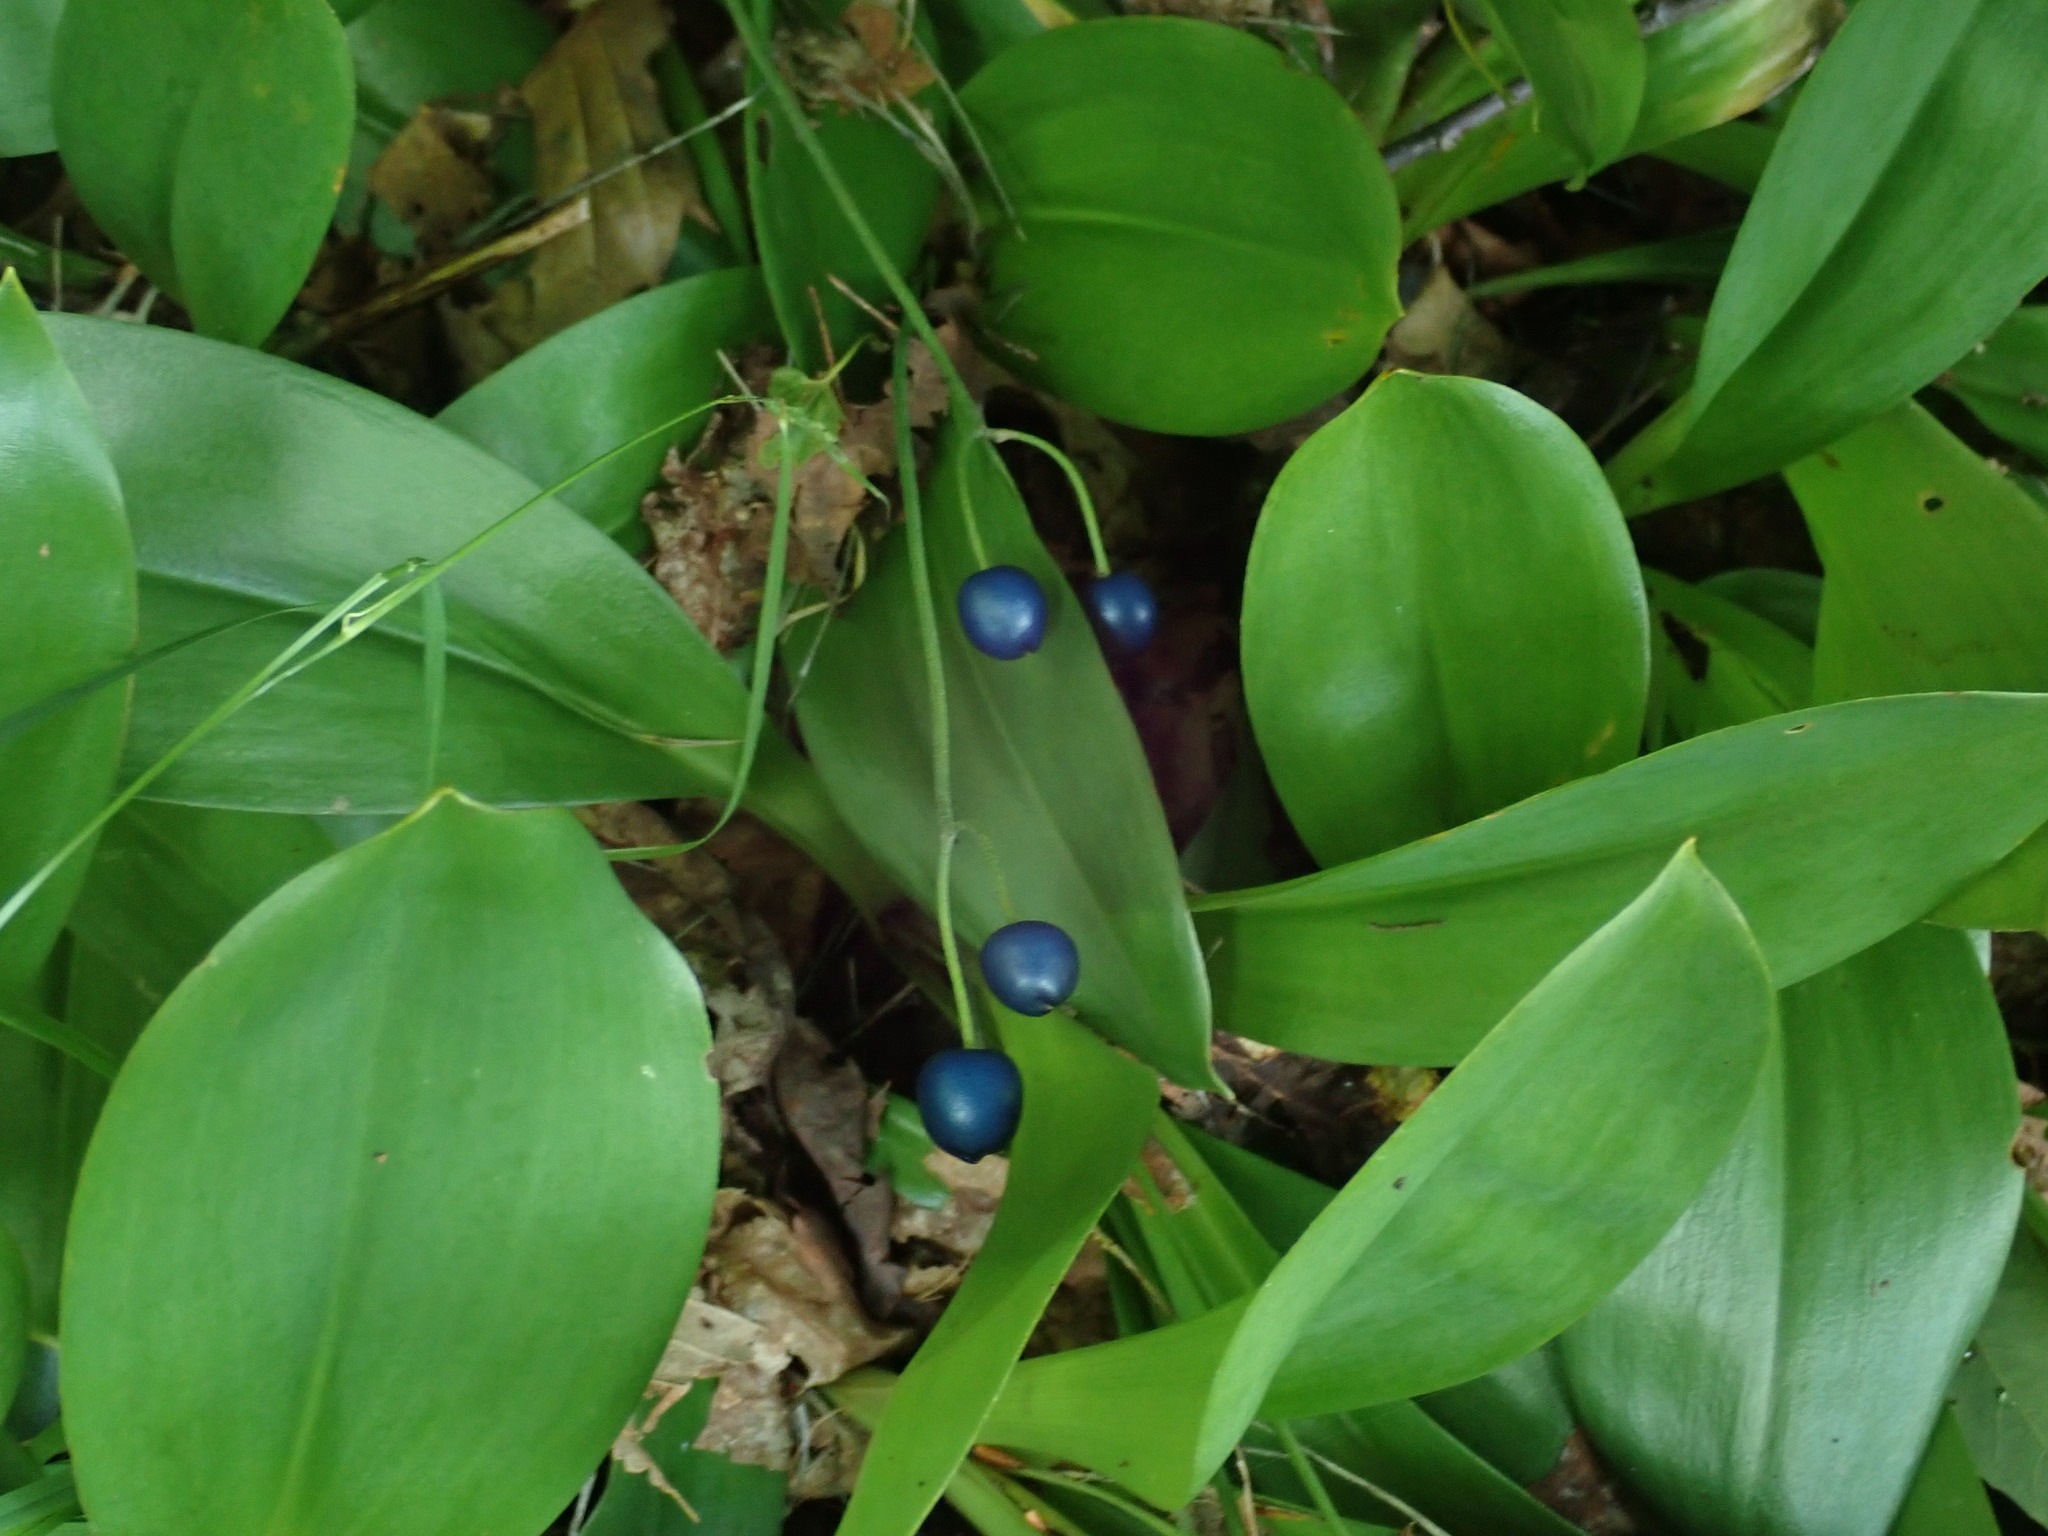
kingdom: Plantae
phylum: Tracheophyta
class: Liliopsida
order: Liliales
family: Liliaceae
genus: Clintonia
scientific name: Clintonia borealis
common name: Yellow clintonia
